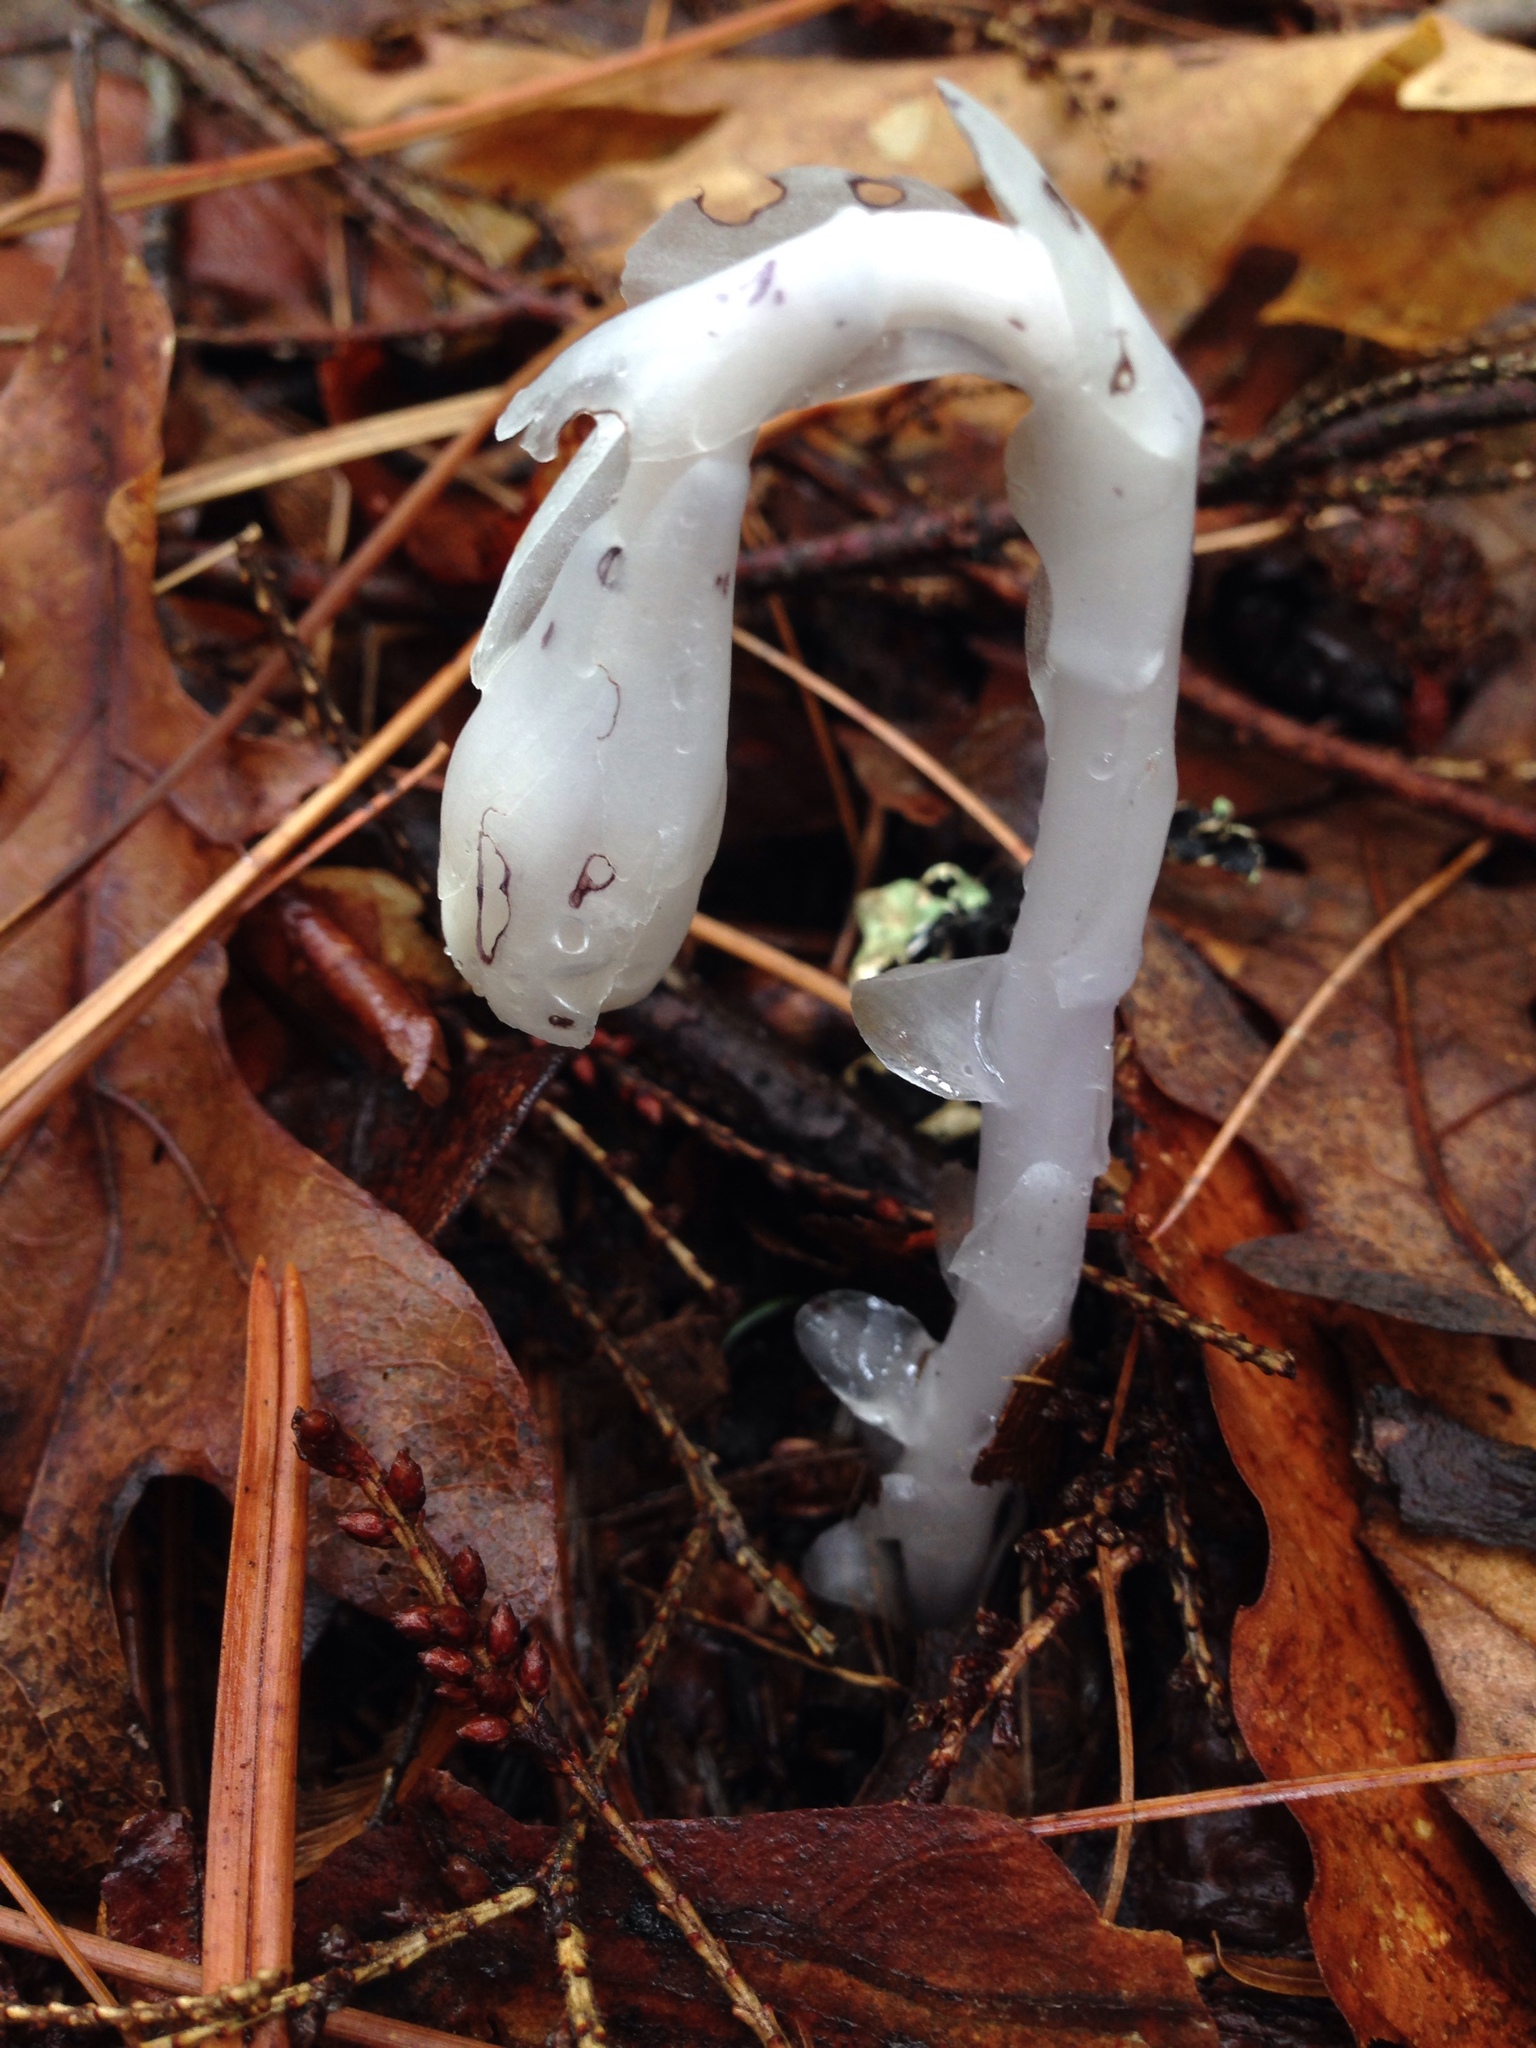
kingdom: Plantae
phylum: Tracheophyta
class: Magnoliopsida
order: Ericales
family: Ericaceae
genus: Monotropa
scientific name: Monotropa uniflora
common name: Convulsion root
